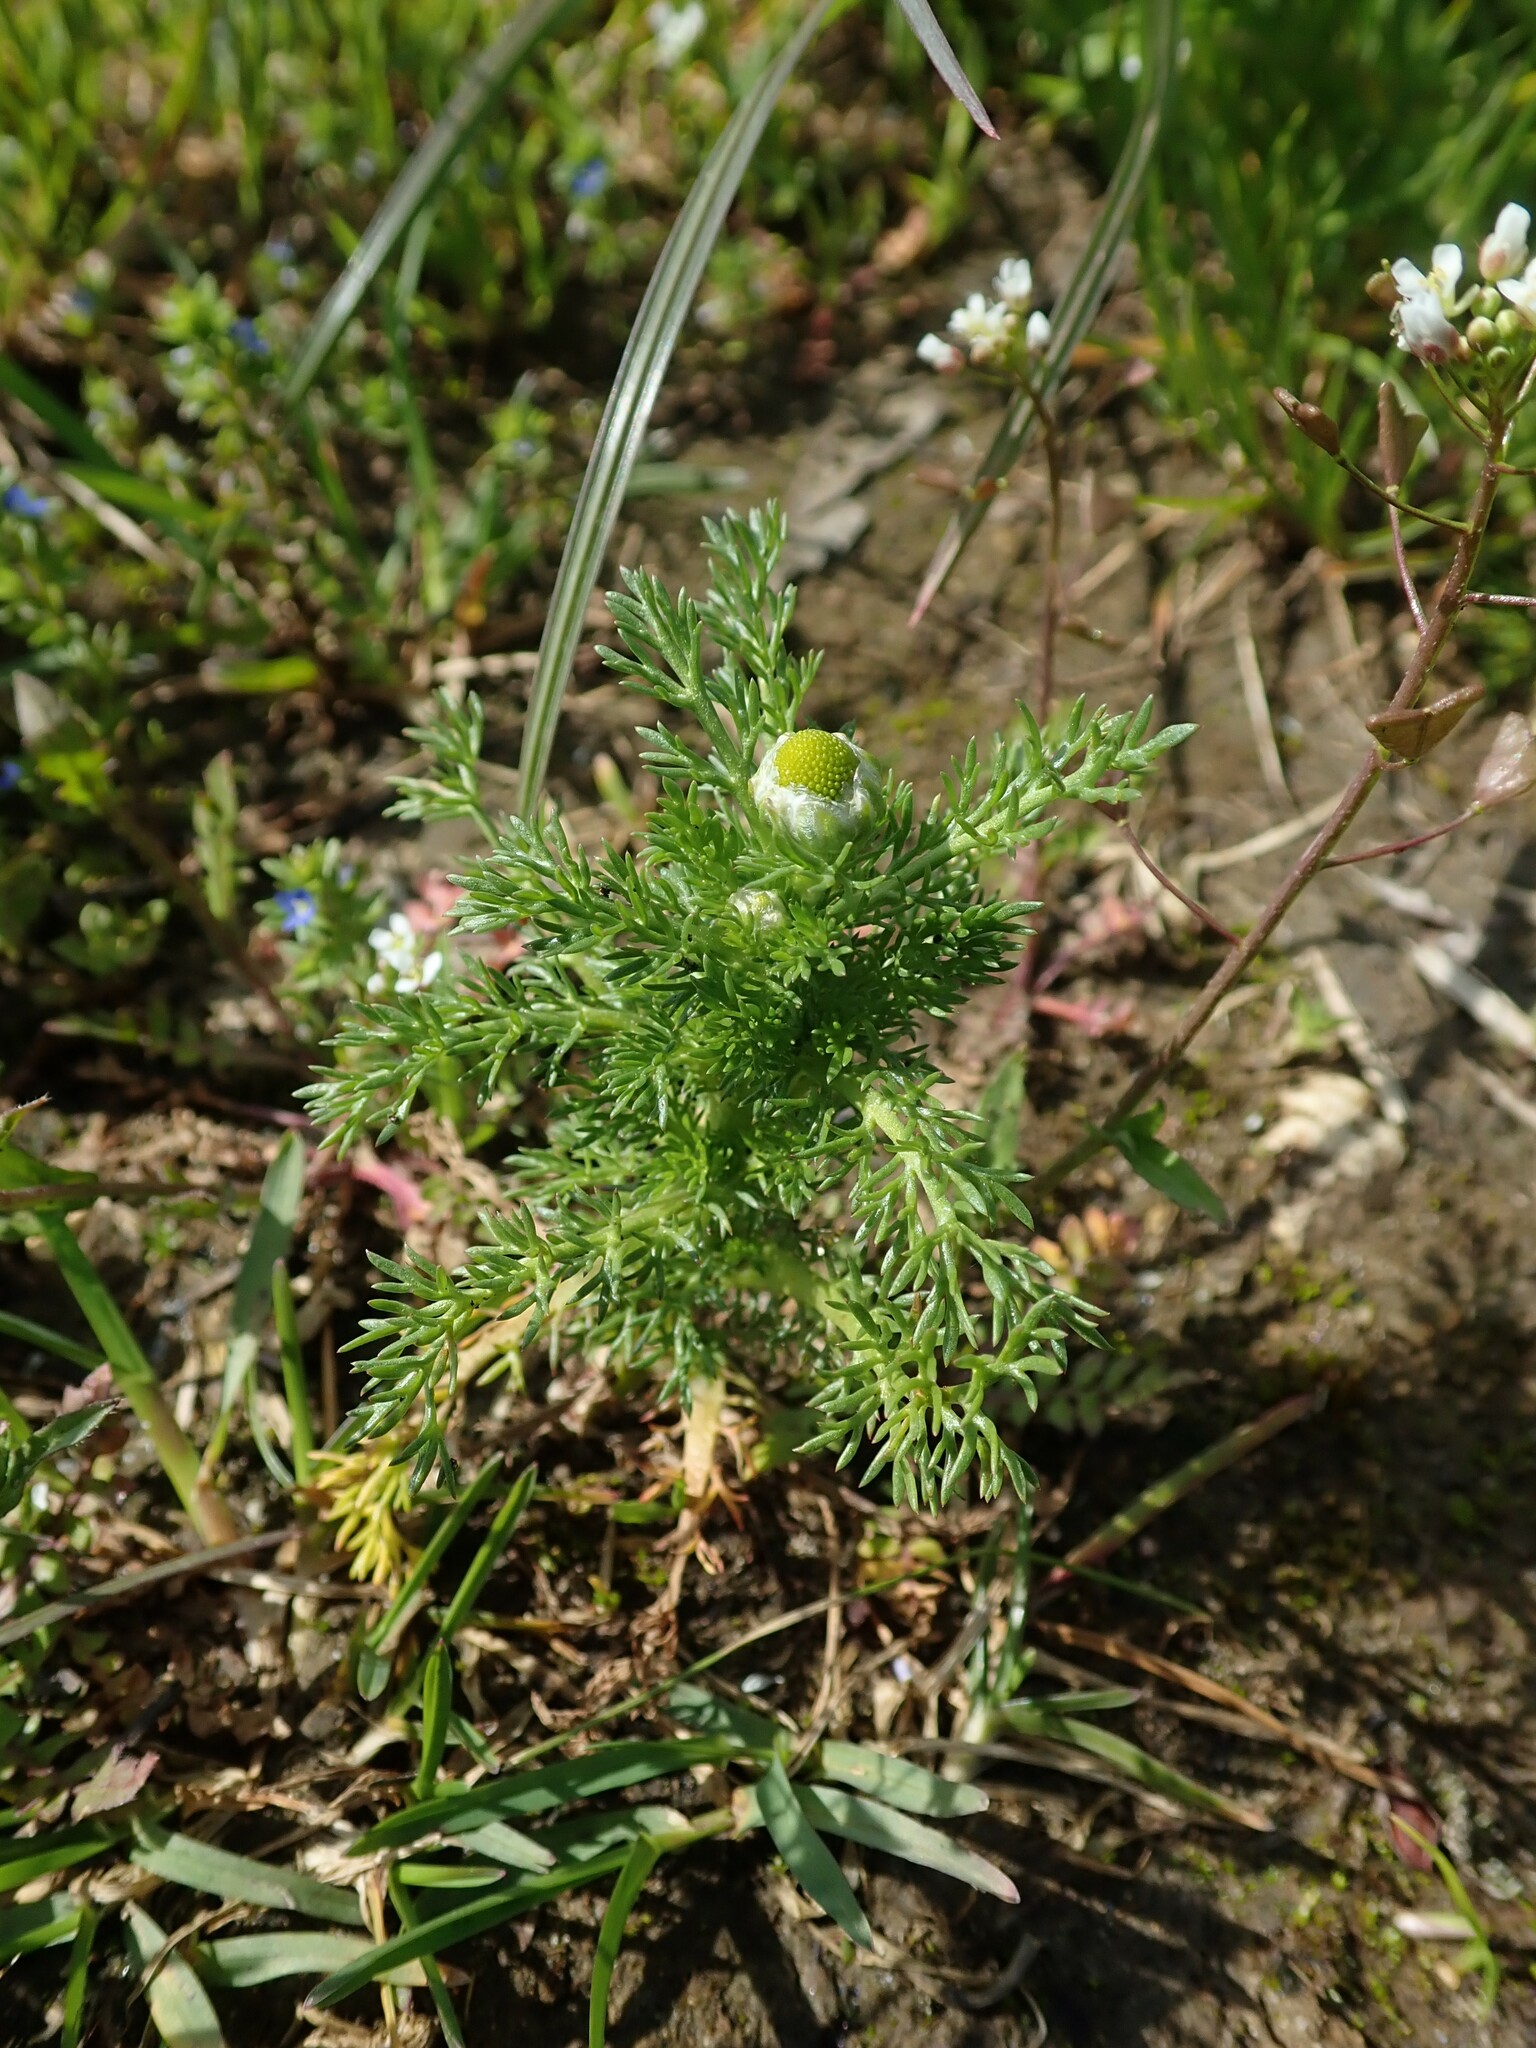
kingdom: Plantae
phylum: Tracheophyta
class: Magnoliopsida
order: Asterales
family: Asteraceae
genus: Matricaria
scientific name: Matricaria discoidea
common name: Disc mayweed
